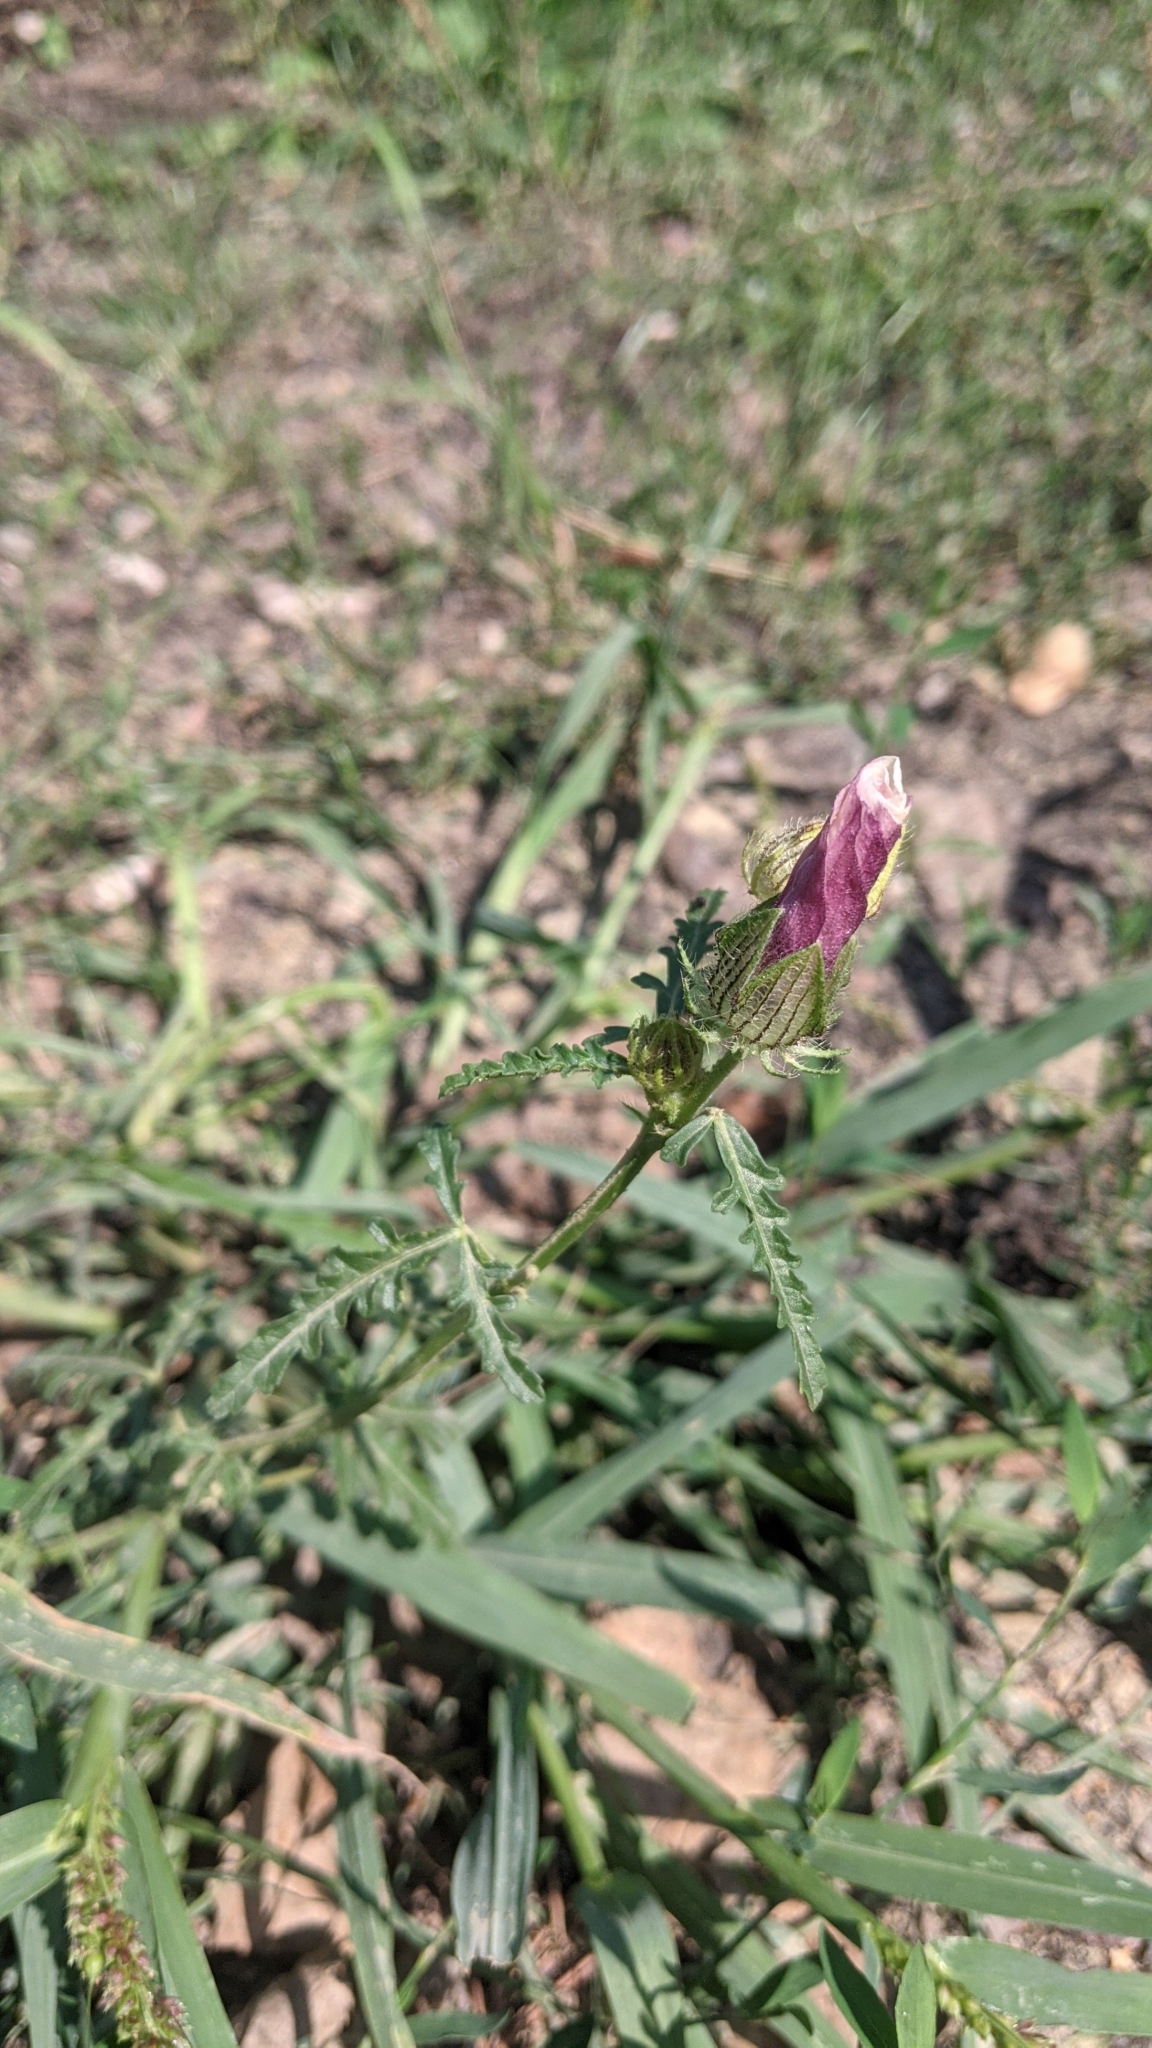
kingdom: Plantae
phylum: Tracheophyta
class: Magnoliopsida
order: Malvales
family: Malvaceae
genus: Hibiscus
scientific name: Hibiscus trionum
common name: Bladder ketmia
